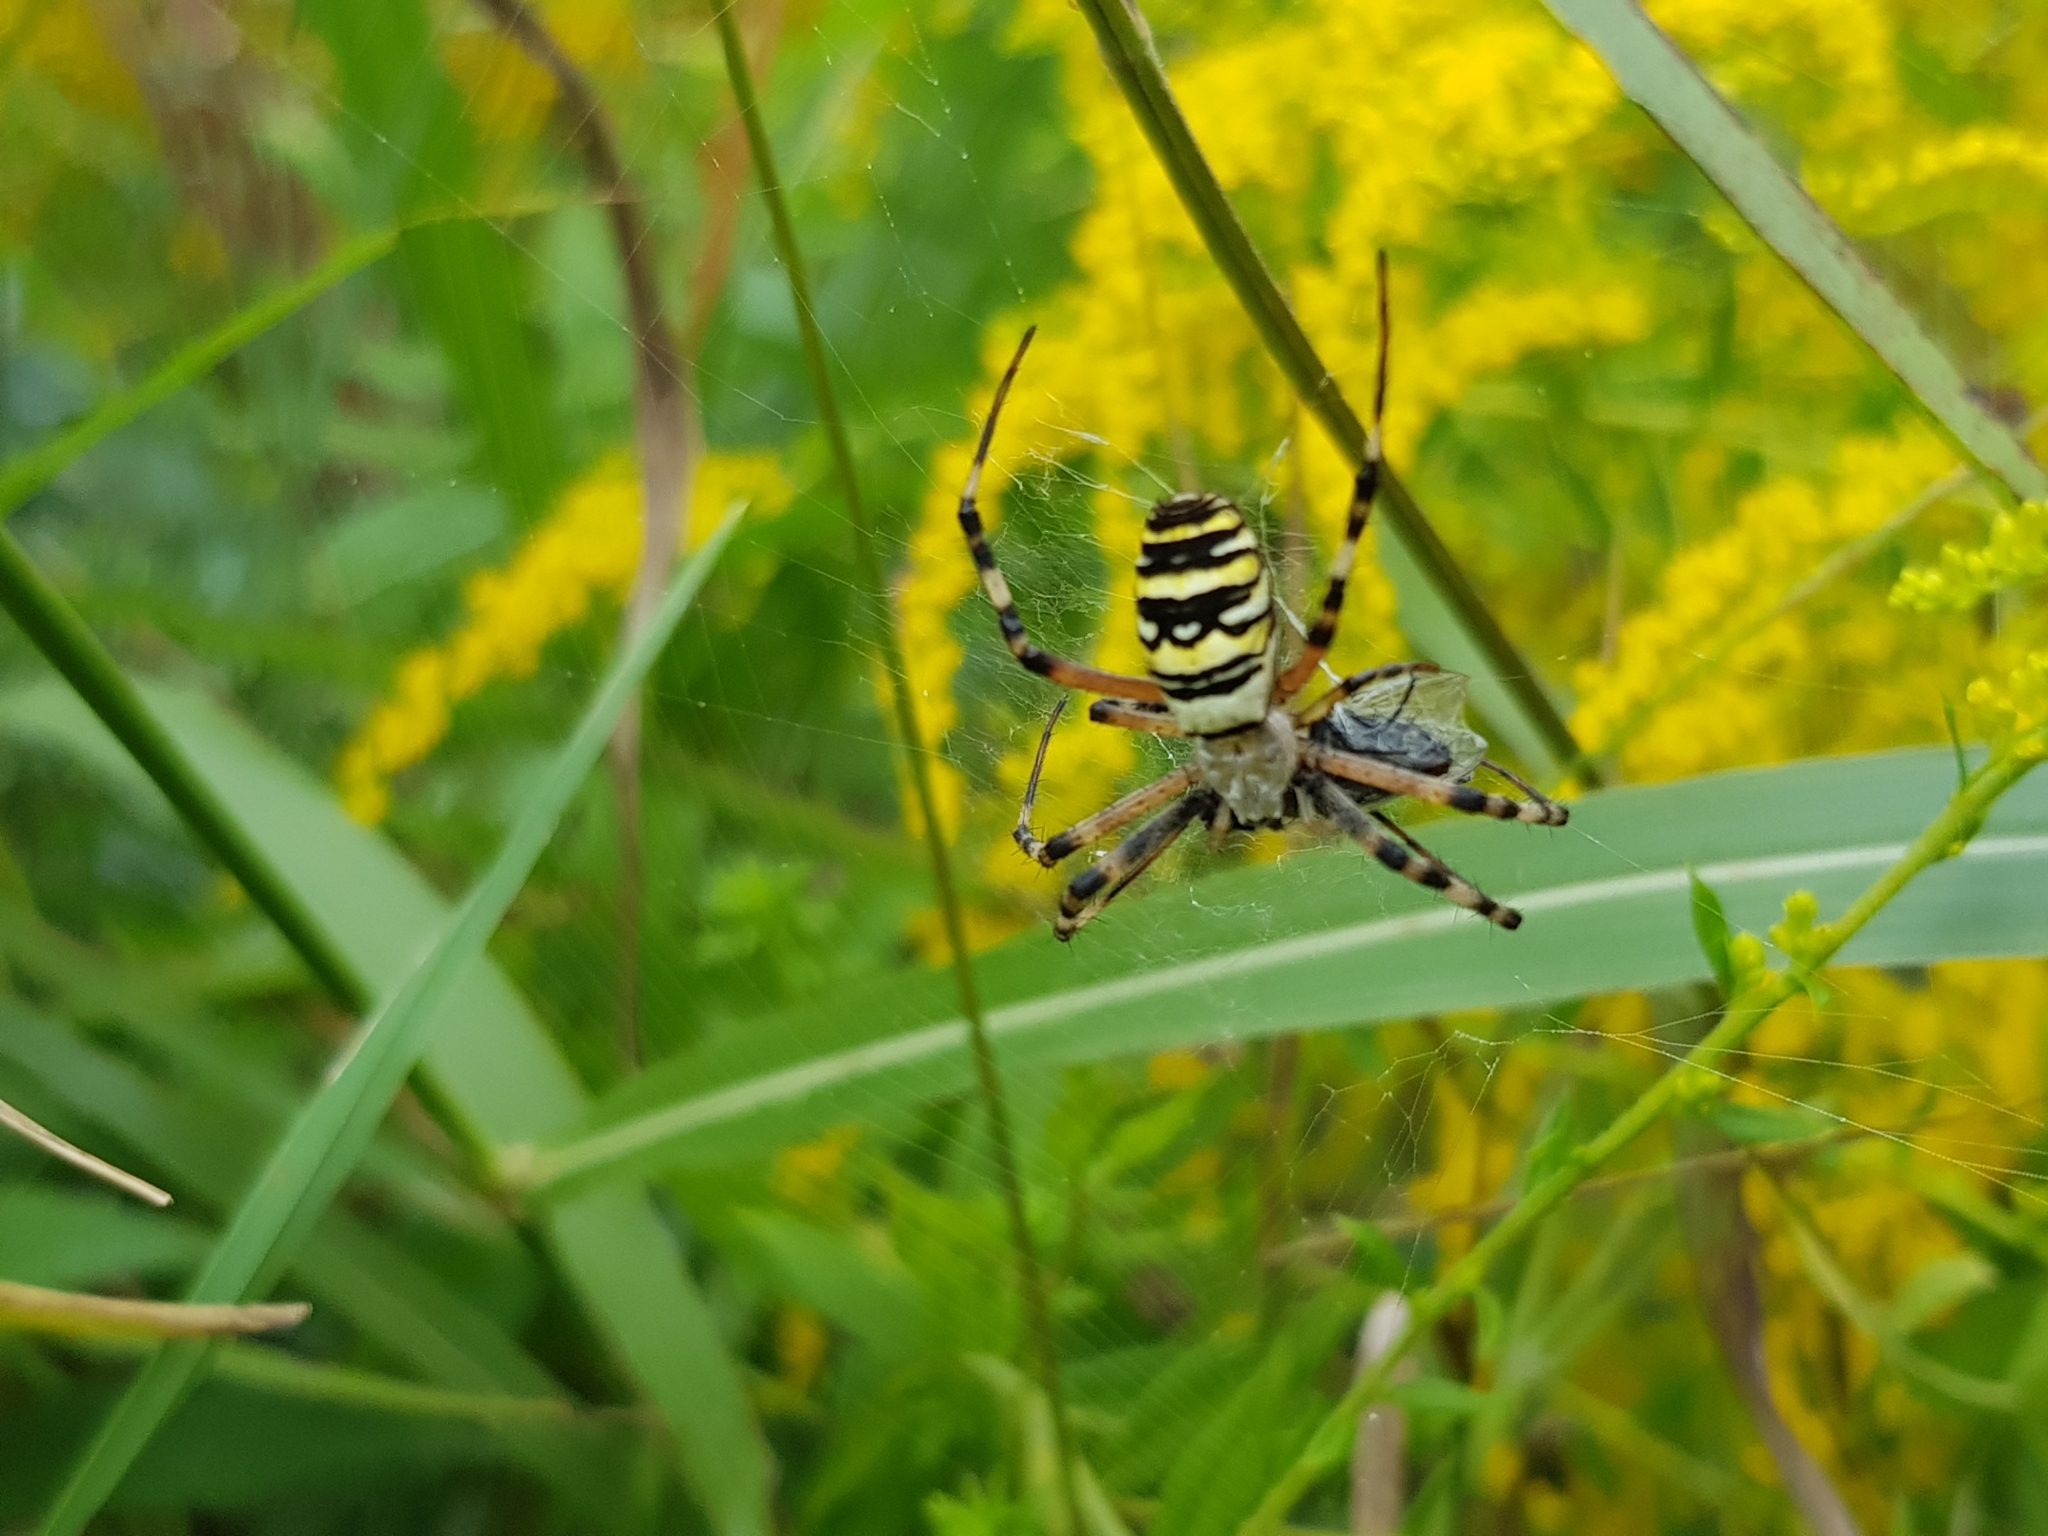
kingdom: Animalia
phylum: Arthropoda
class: Arachnida
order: Araneae
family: Araneidae
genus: Argiope
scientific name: Argiope bruennichi
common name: Wasp spider
